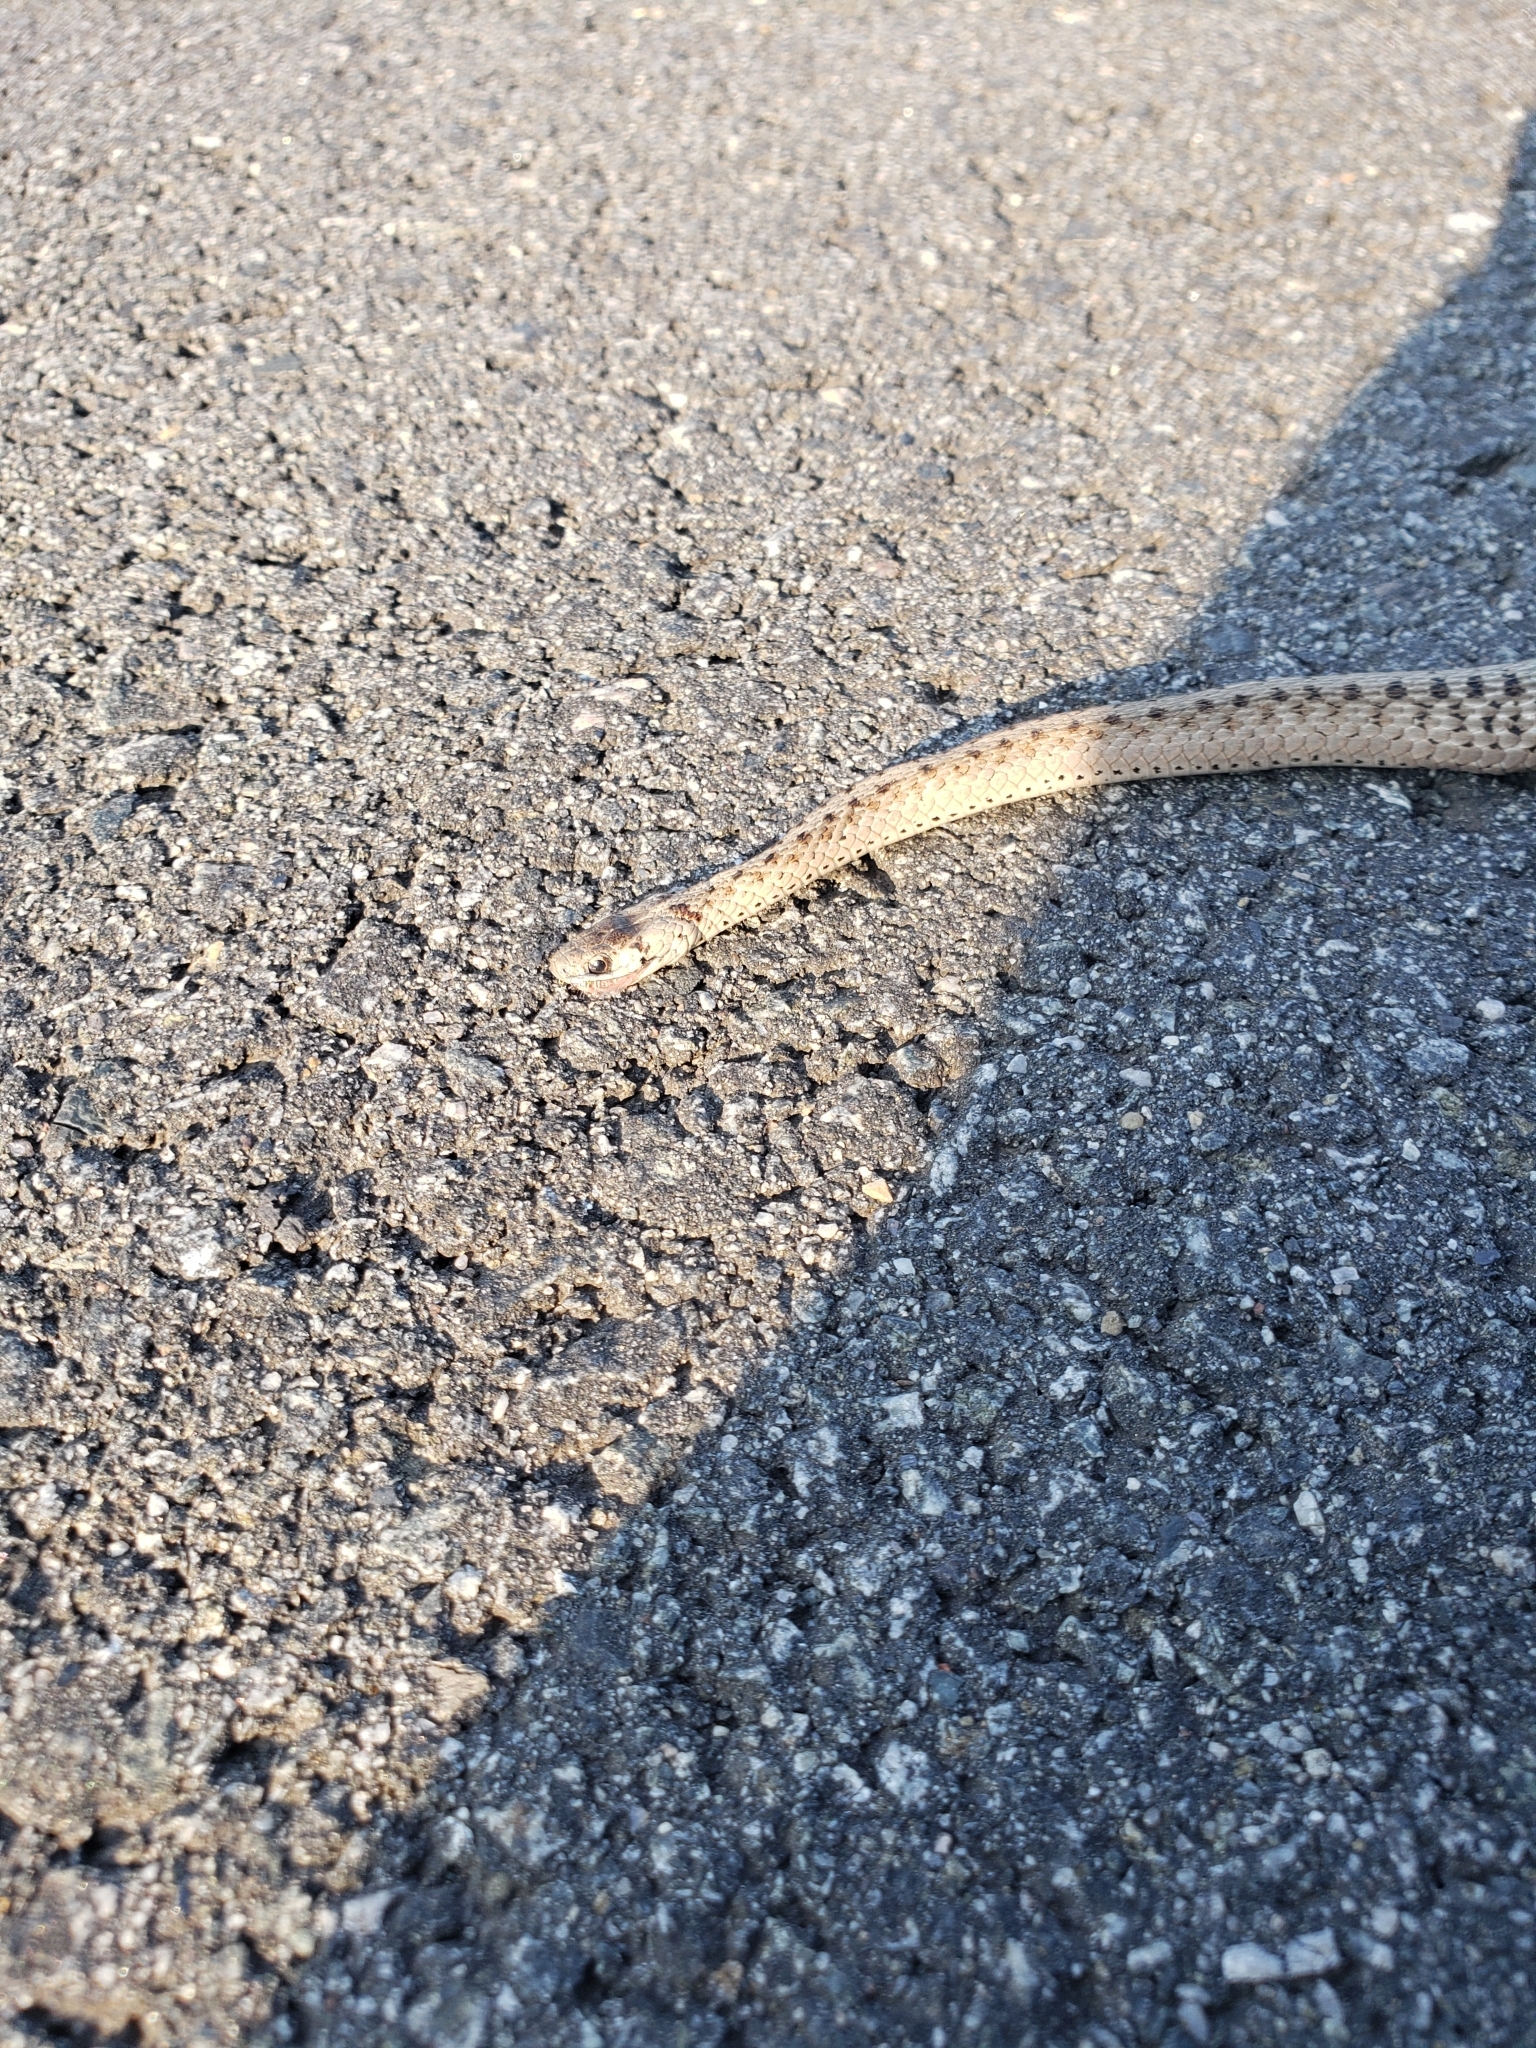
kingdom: Animalia
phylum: Chordata
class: Squamata
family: Colubridae
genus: Storeria
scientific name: Storeria dekayi
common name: (dekay’s) brown snake
